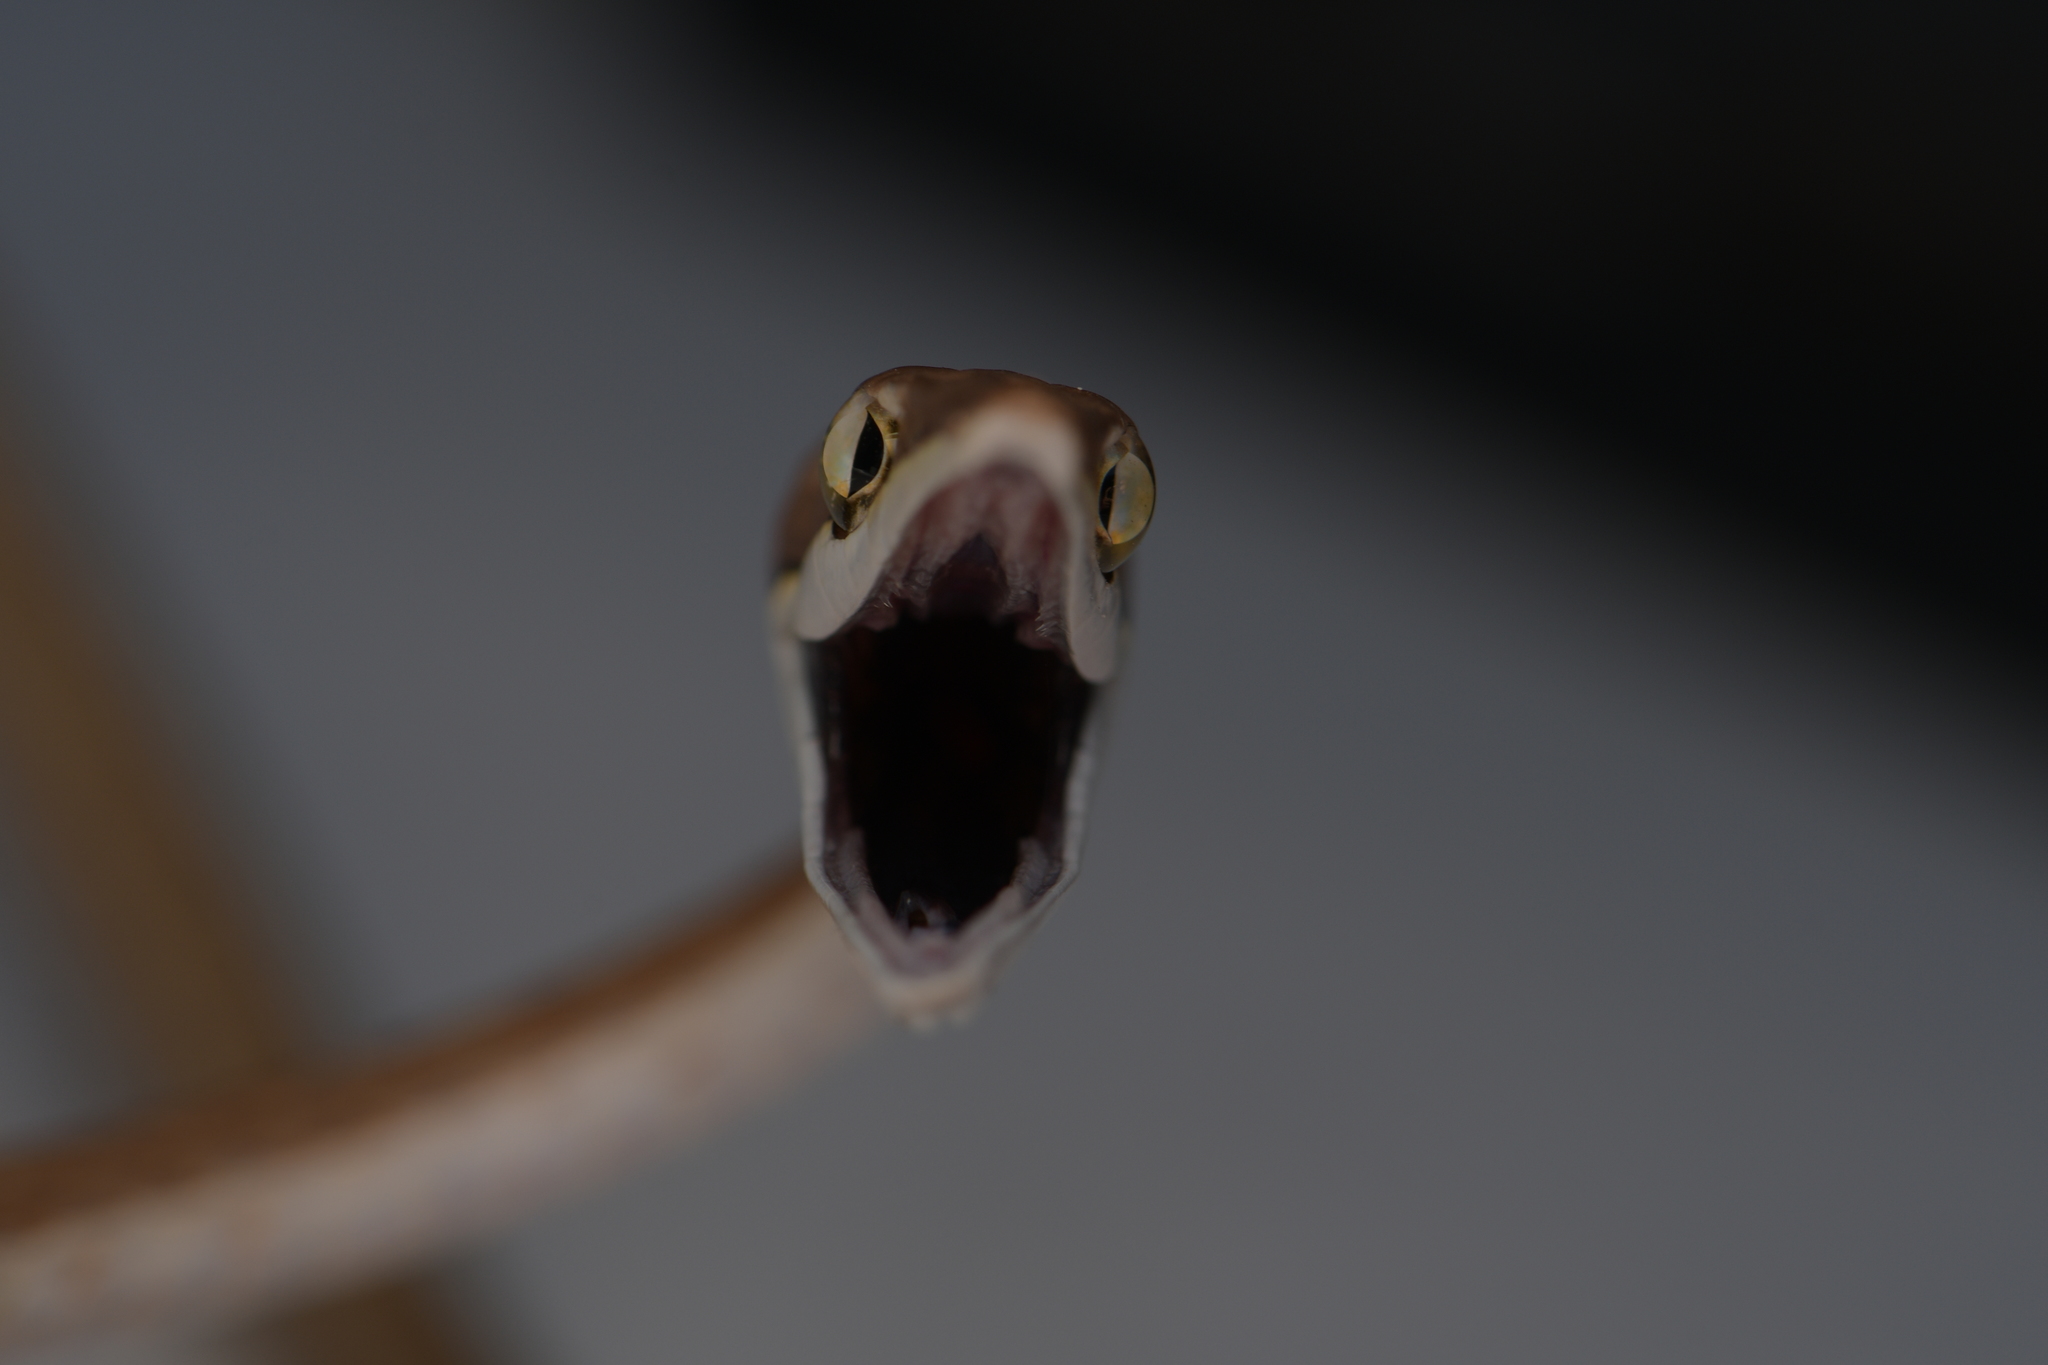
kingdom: Animalia
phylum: Chordata
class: Squamata
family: Colubridae
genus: Oxybelis
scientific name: Oxybelis microphthalmus
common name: Thrornscrub vine snake
